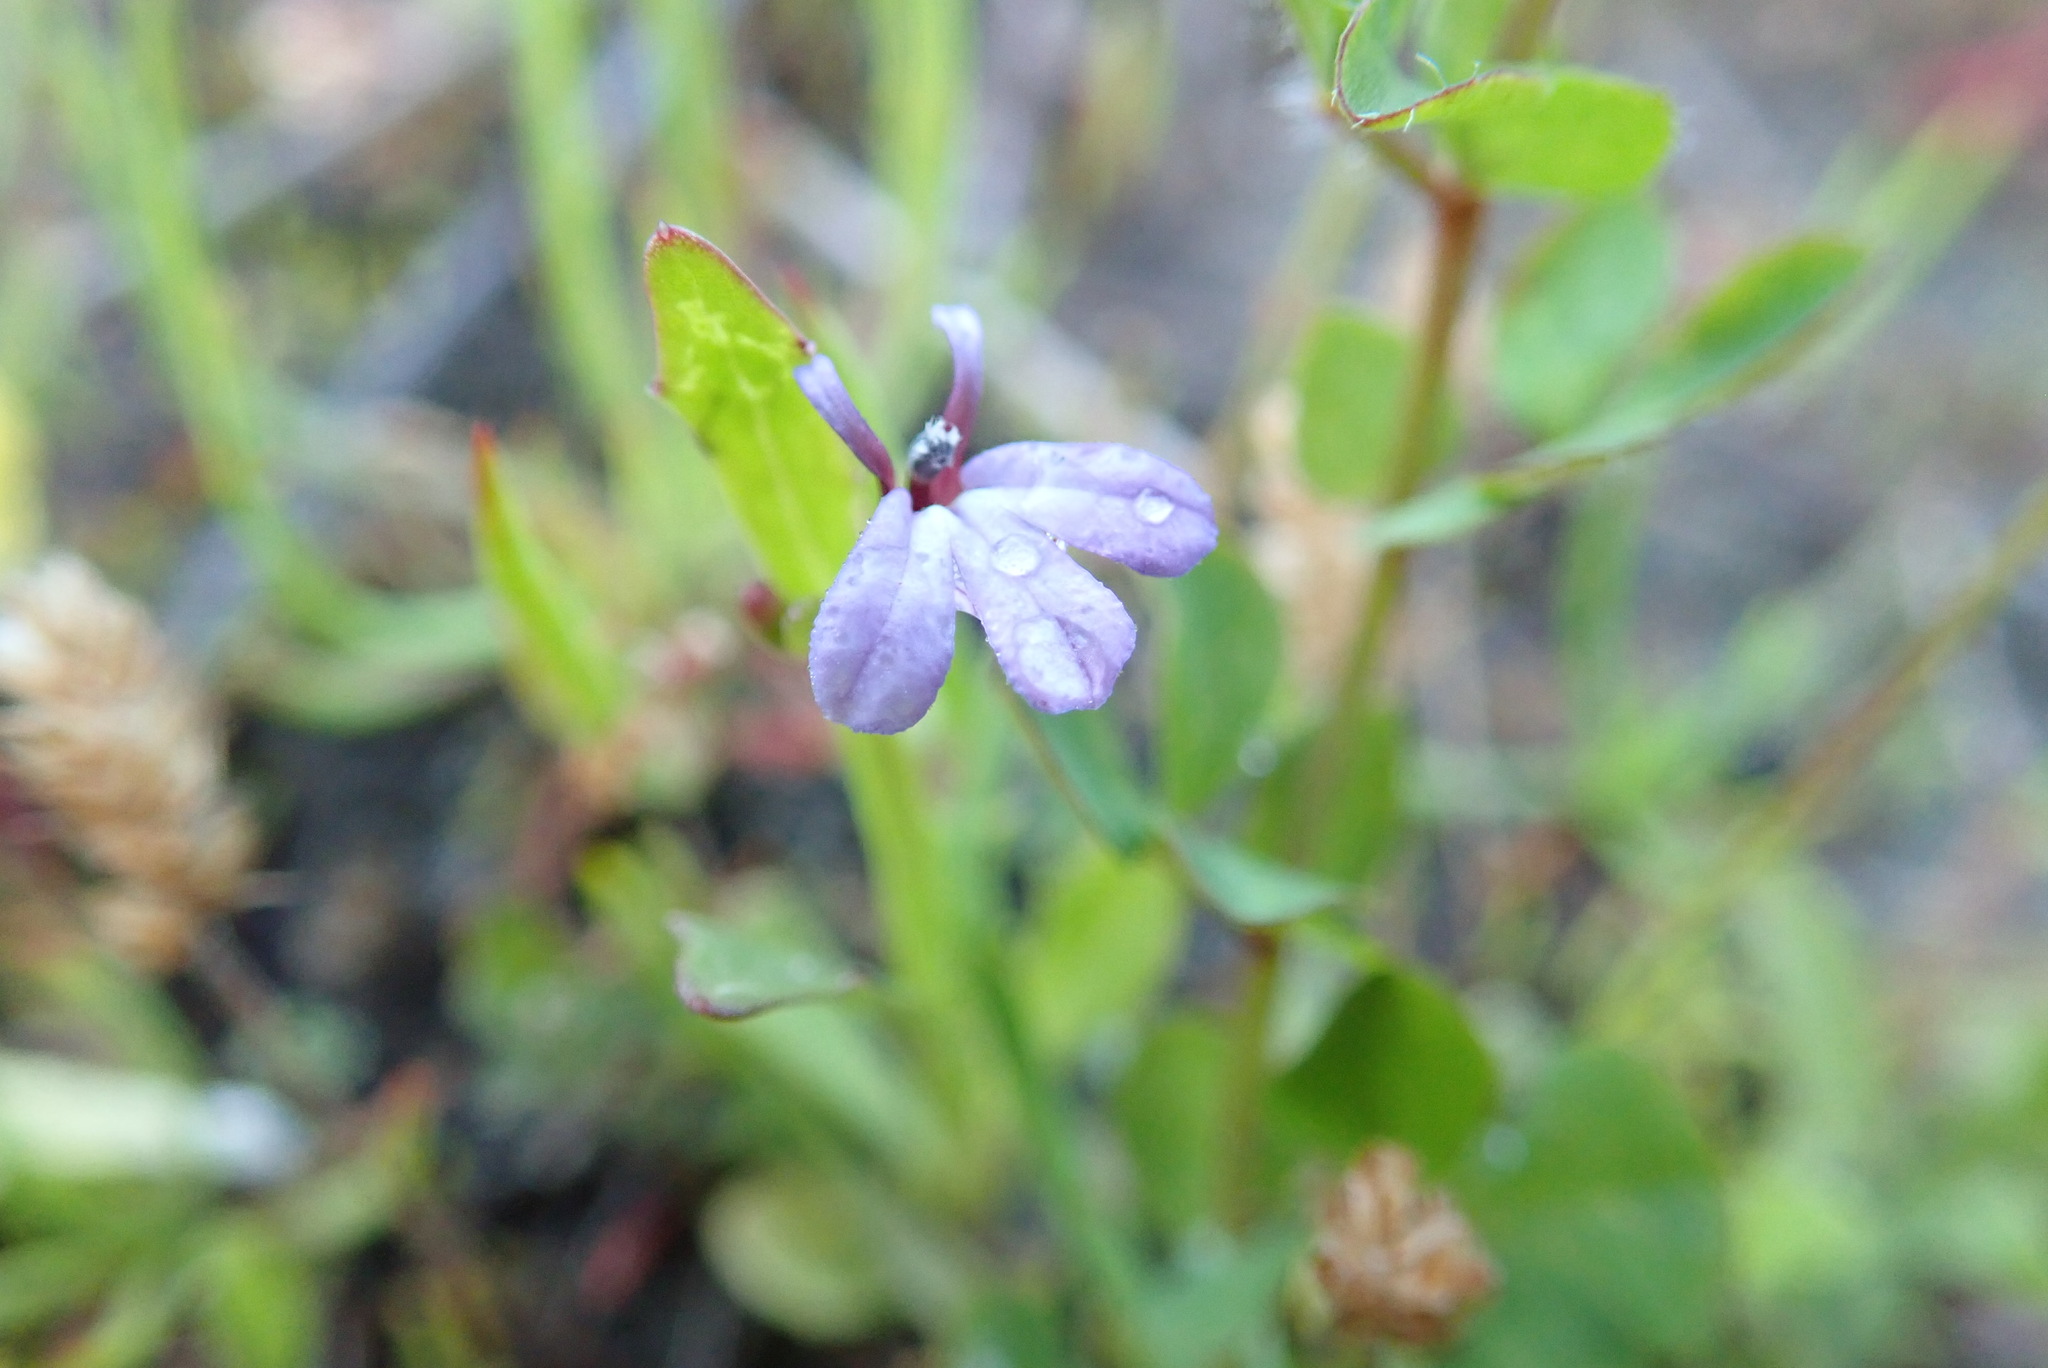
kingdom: Plantae
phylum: Tracheophyta
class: Magnoliopsida
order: Asterales
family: Campanulaceae
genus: Lobelia
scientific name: Lobelia anceps
